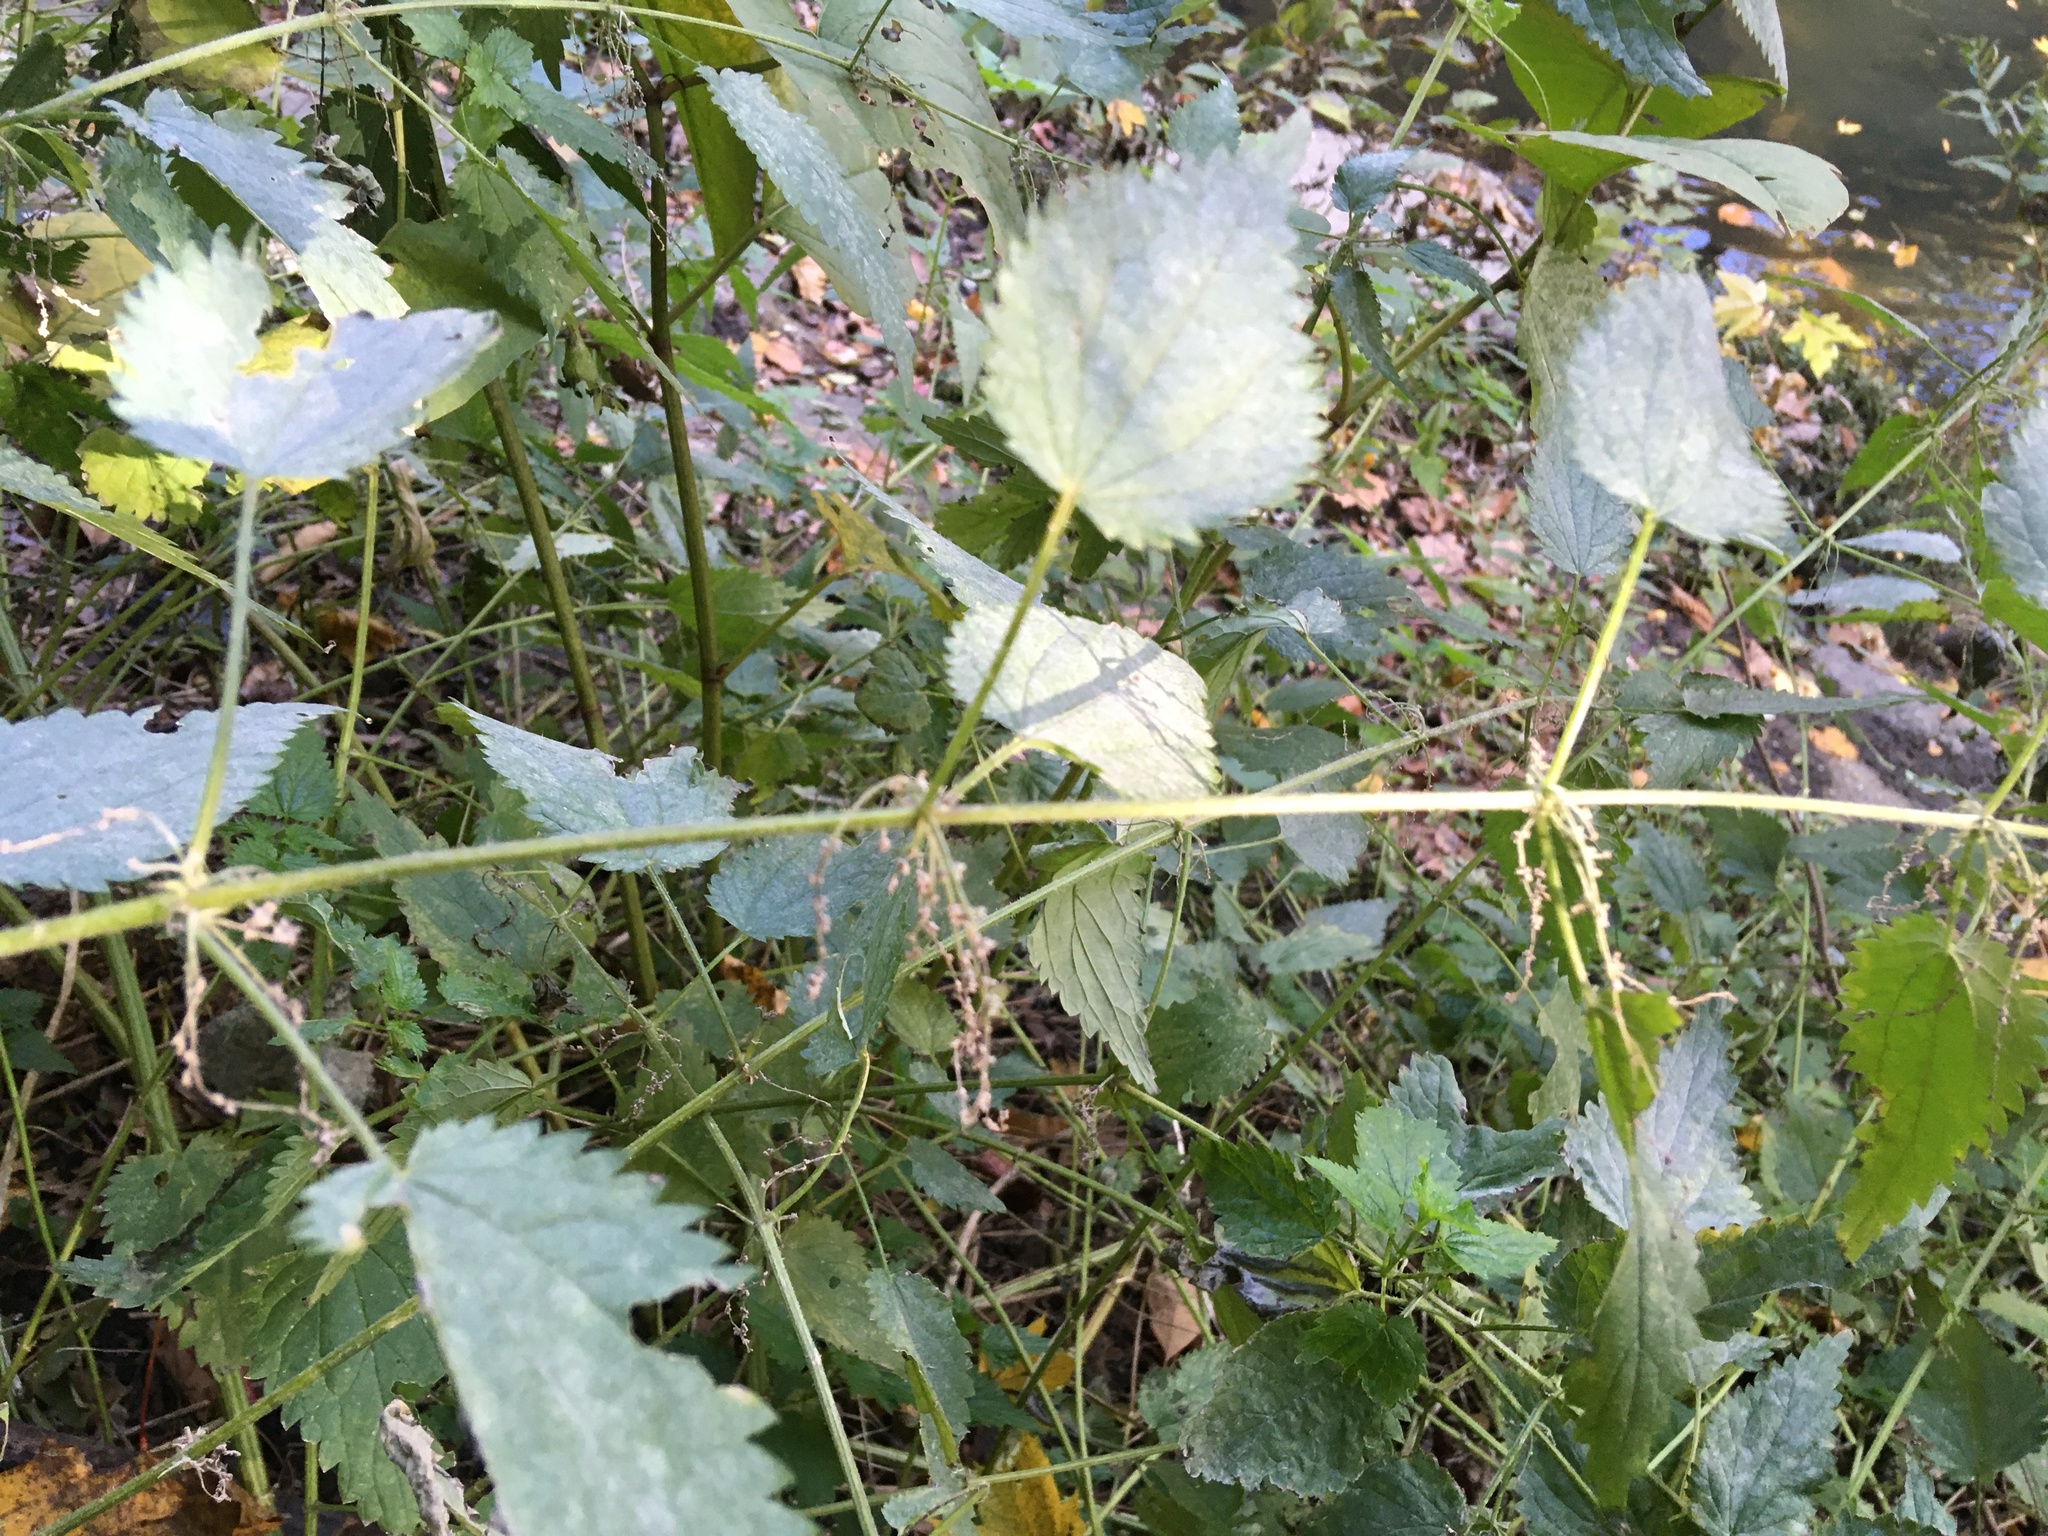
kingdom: Plantae
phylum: Tracheophyta
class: Magnoliopsida
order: Rosales
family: Urticaceae
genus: Urtica
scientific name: Urtica dioica
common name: Common nettle
